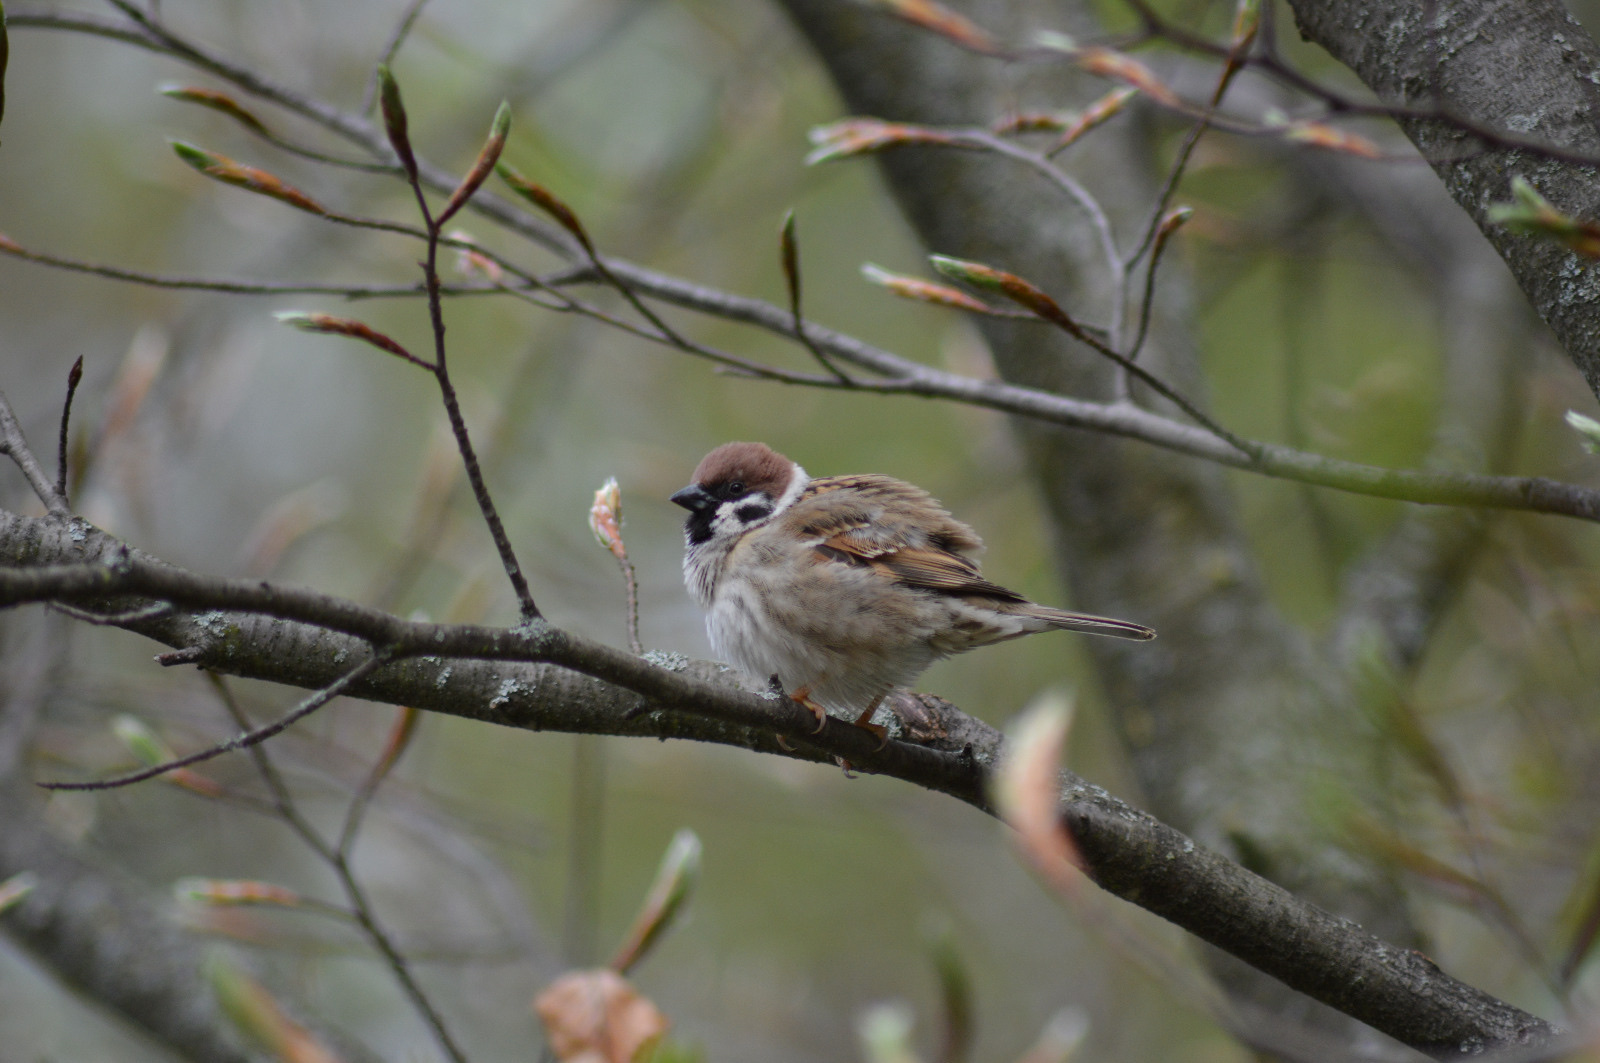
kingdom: Animalia
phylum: Chordata
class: Aves
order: Passeriformes
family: Passeridae
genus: Passer
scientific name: Passer montanus
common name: Eurasian tree sparrow
